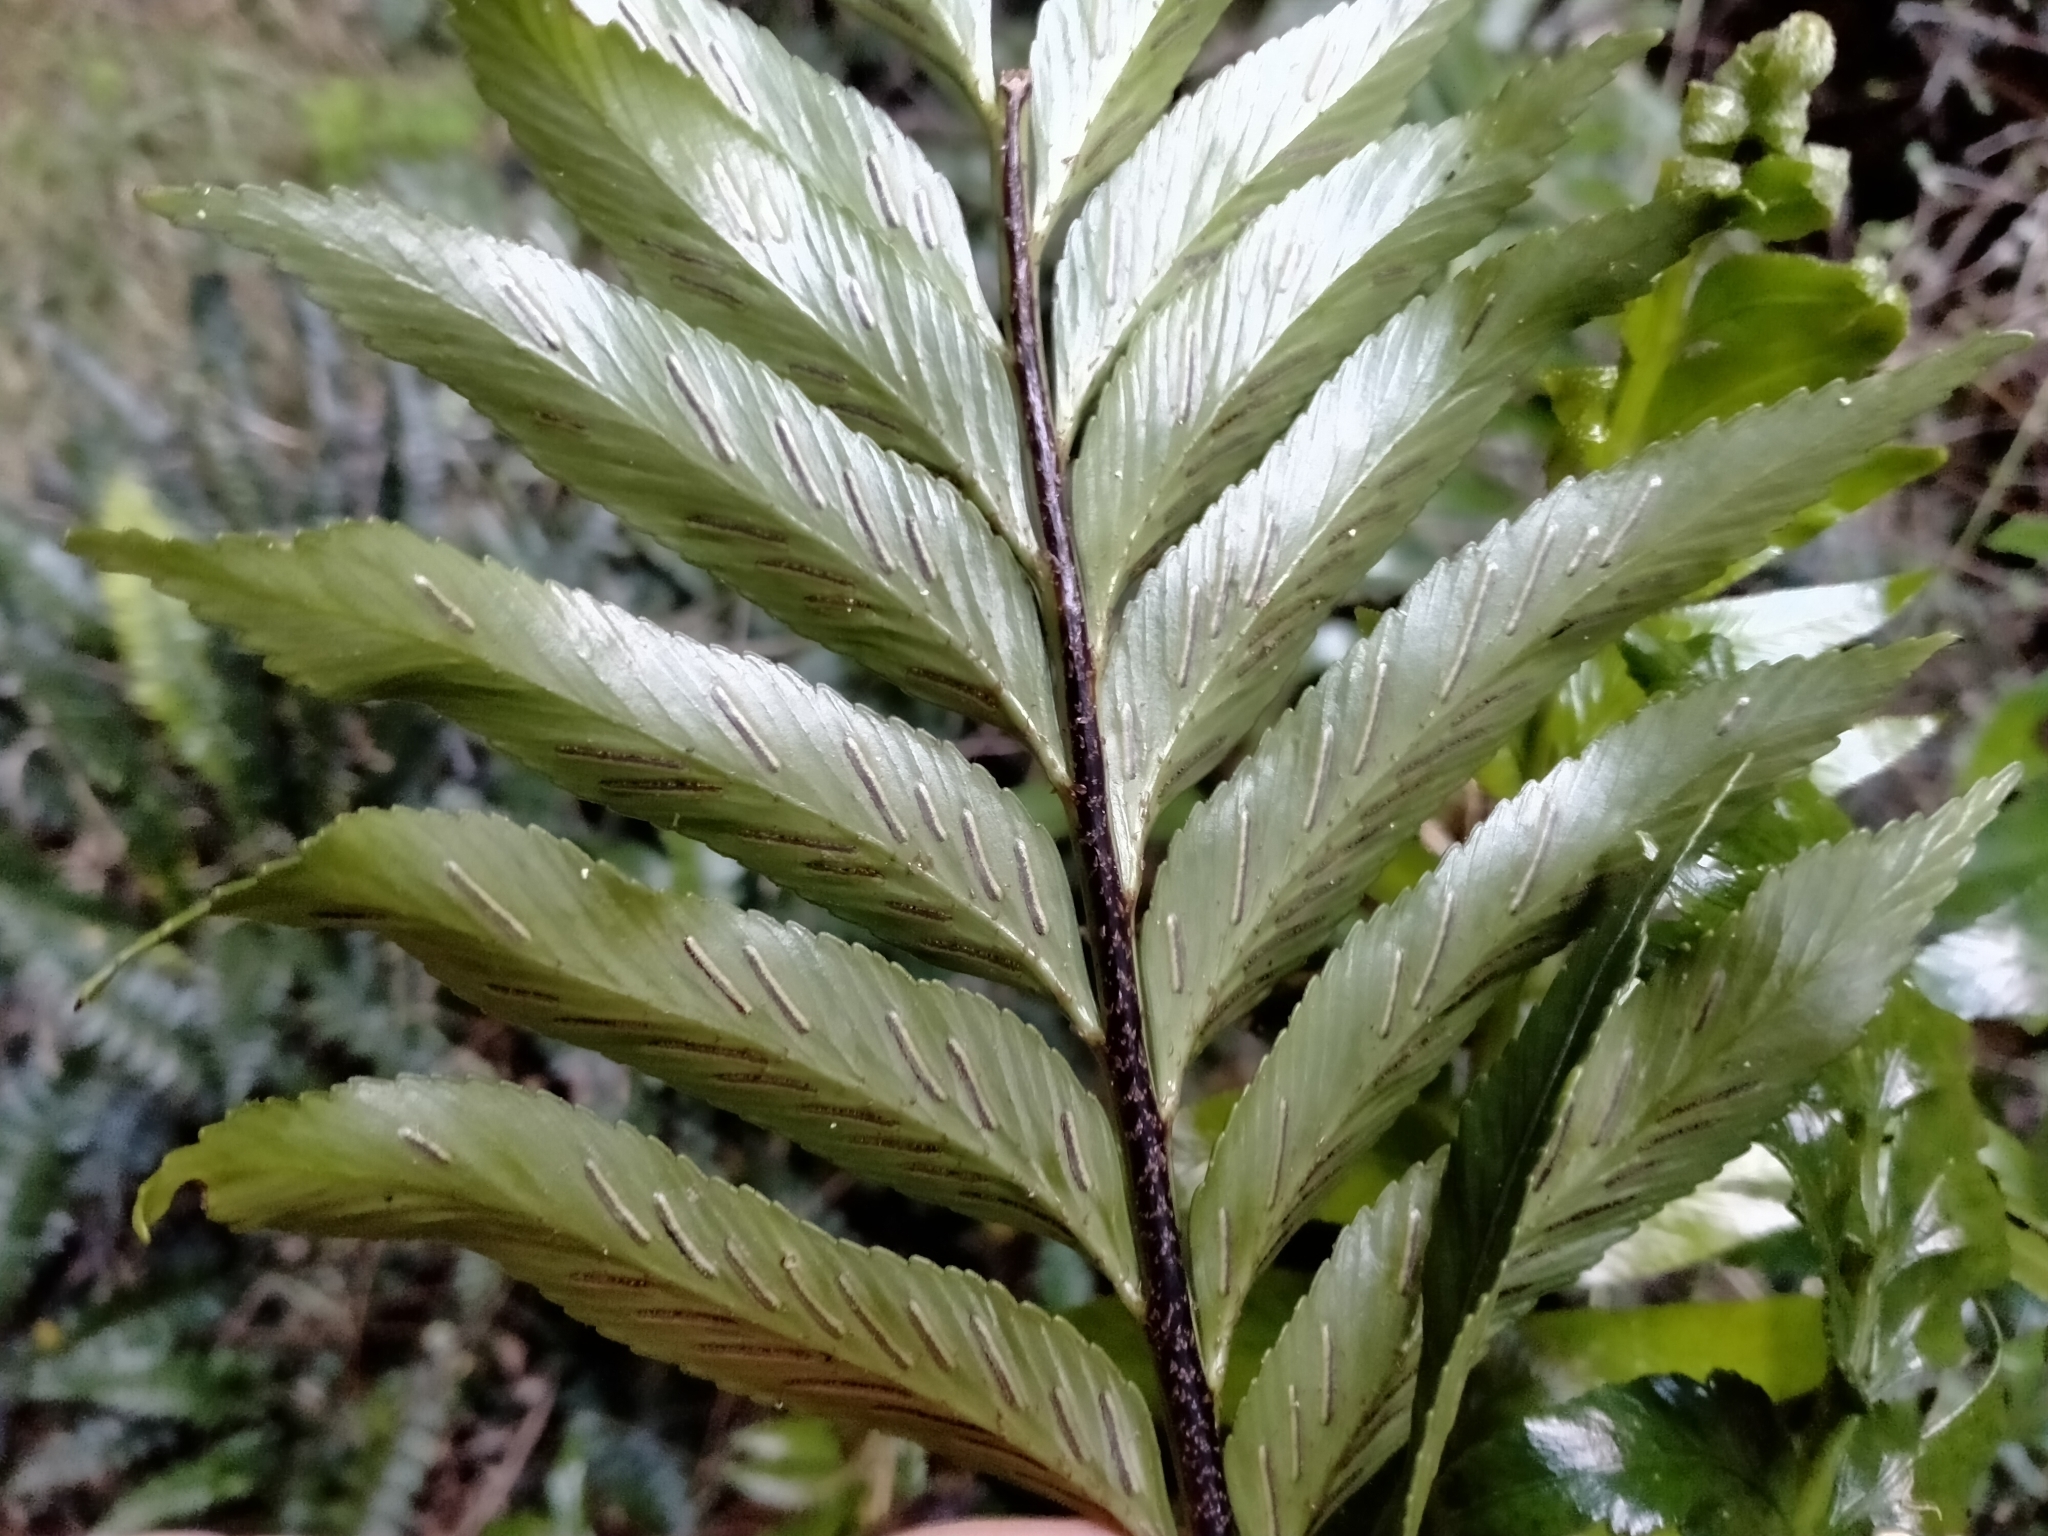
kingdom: Plantae
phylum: Tracheophyta
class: Polypodiopsida
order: Polypodiales
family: Aspleniaceae
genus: Asplenium
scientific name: Asplenium obtusatum
